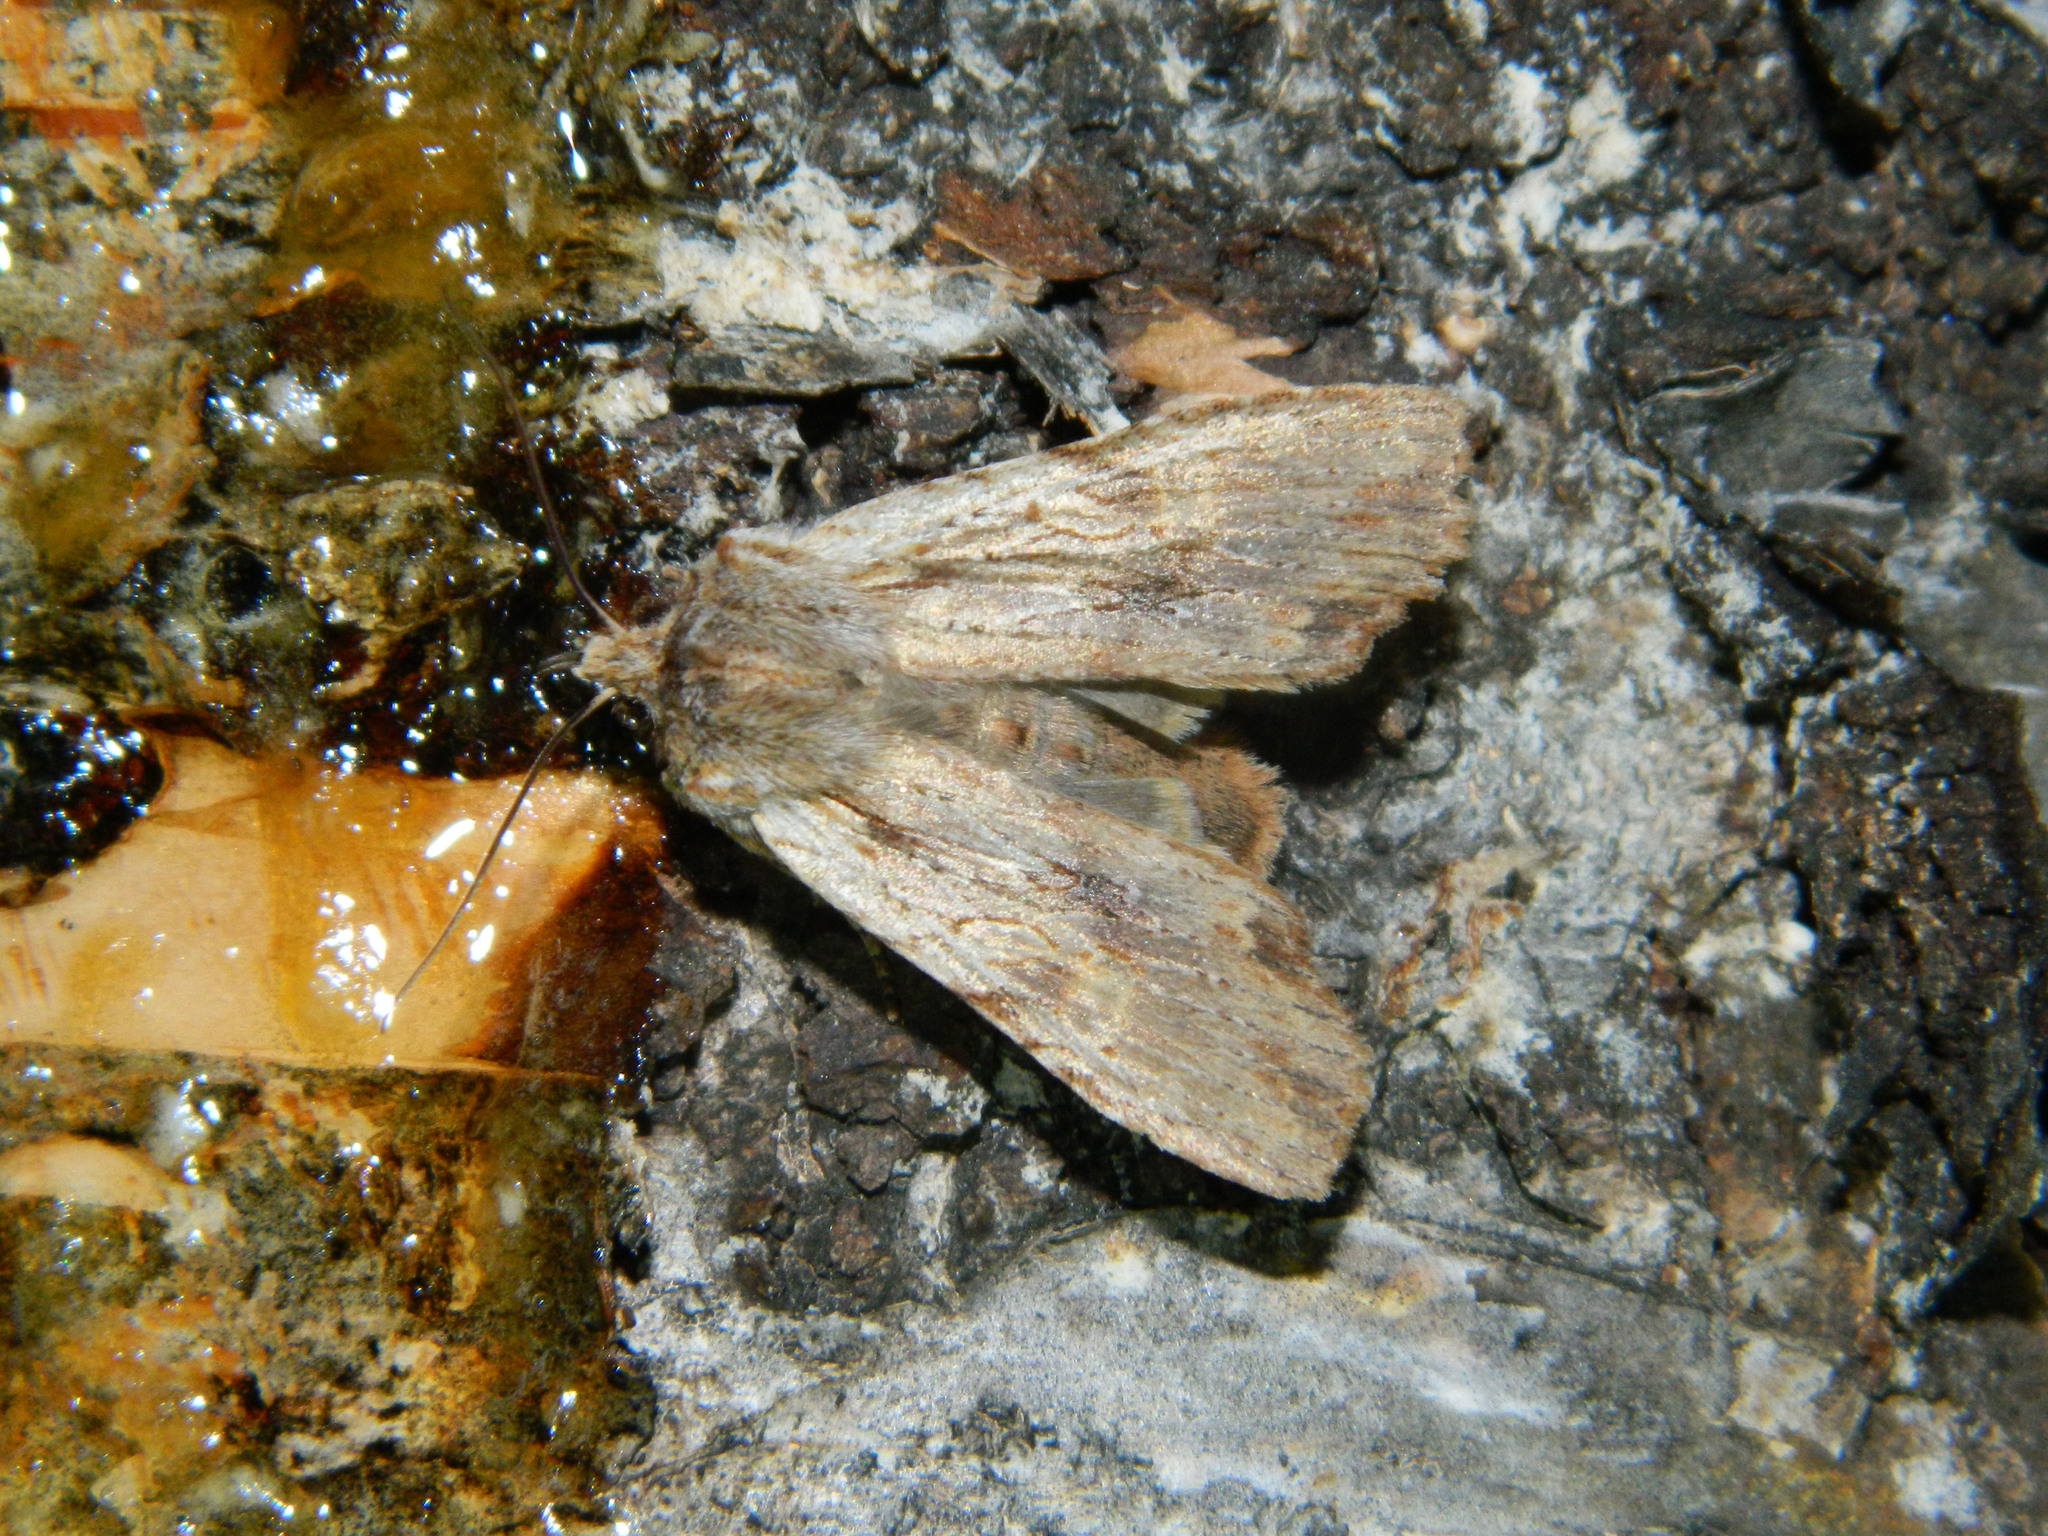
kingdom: Animalia
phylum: Arthropoda
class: Insecta
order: Lepidoptera
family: Noctuidae
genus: Lithophane
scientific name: Lithophane petulca
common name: Wanton pinion
